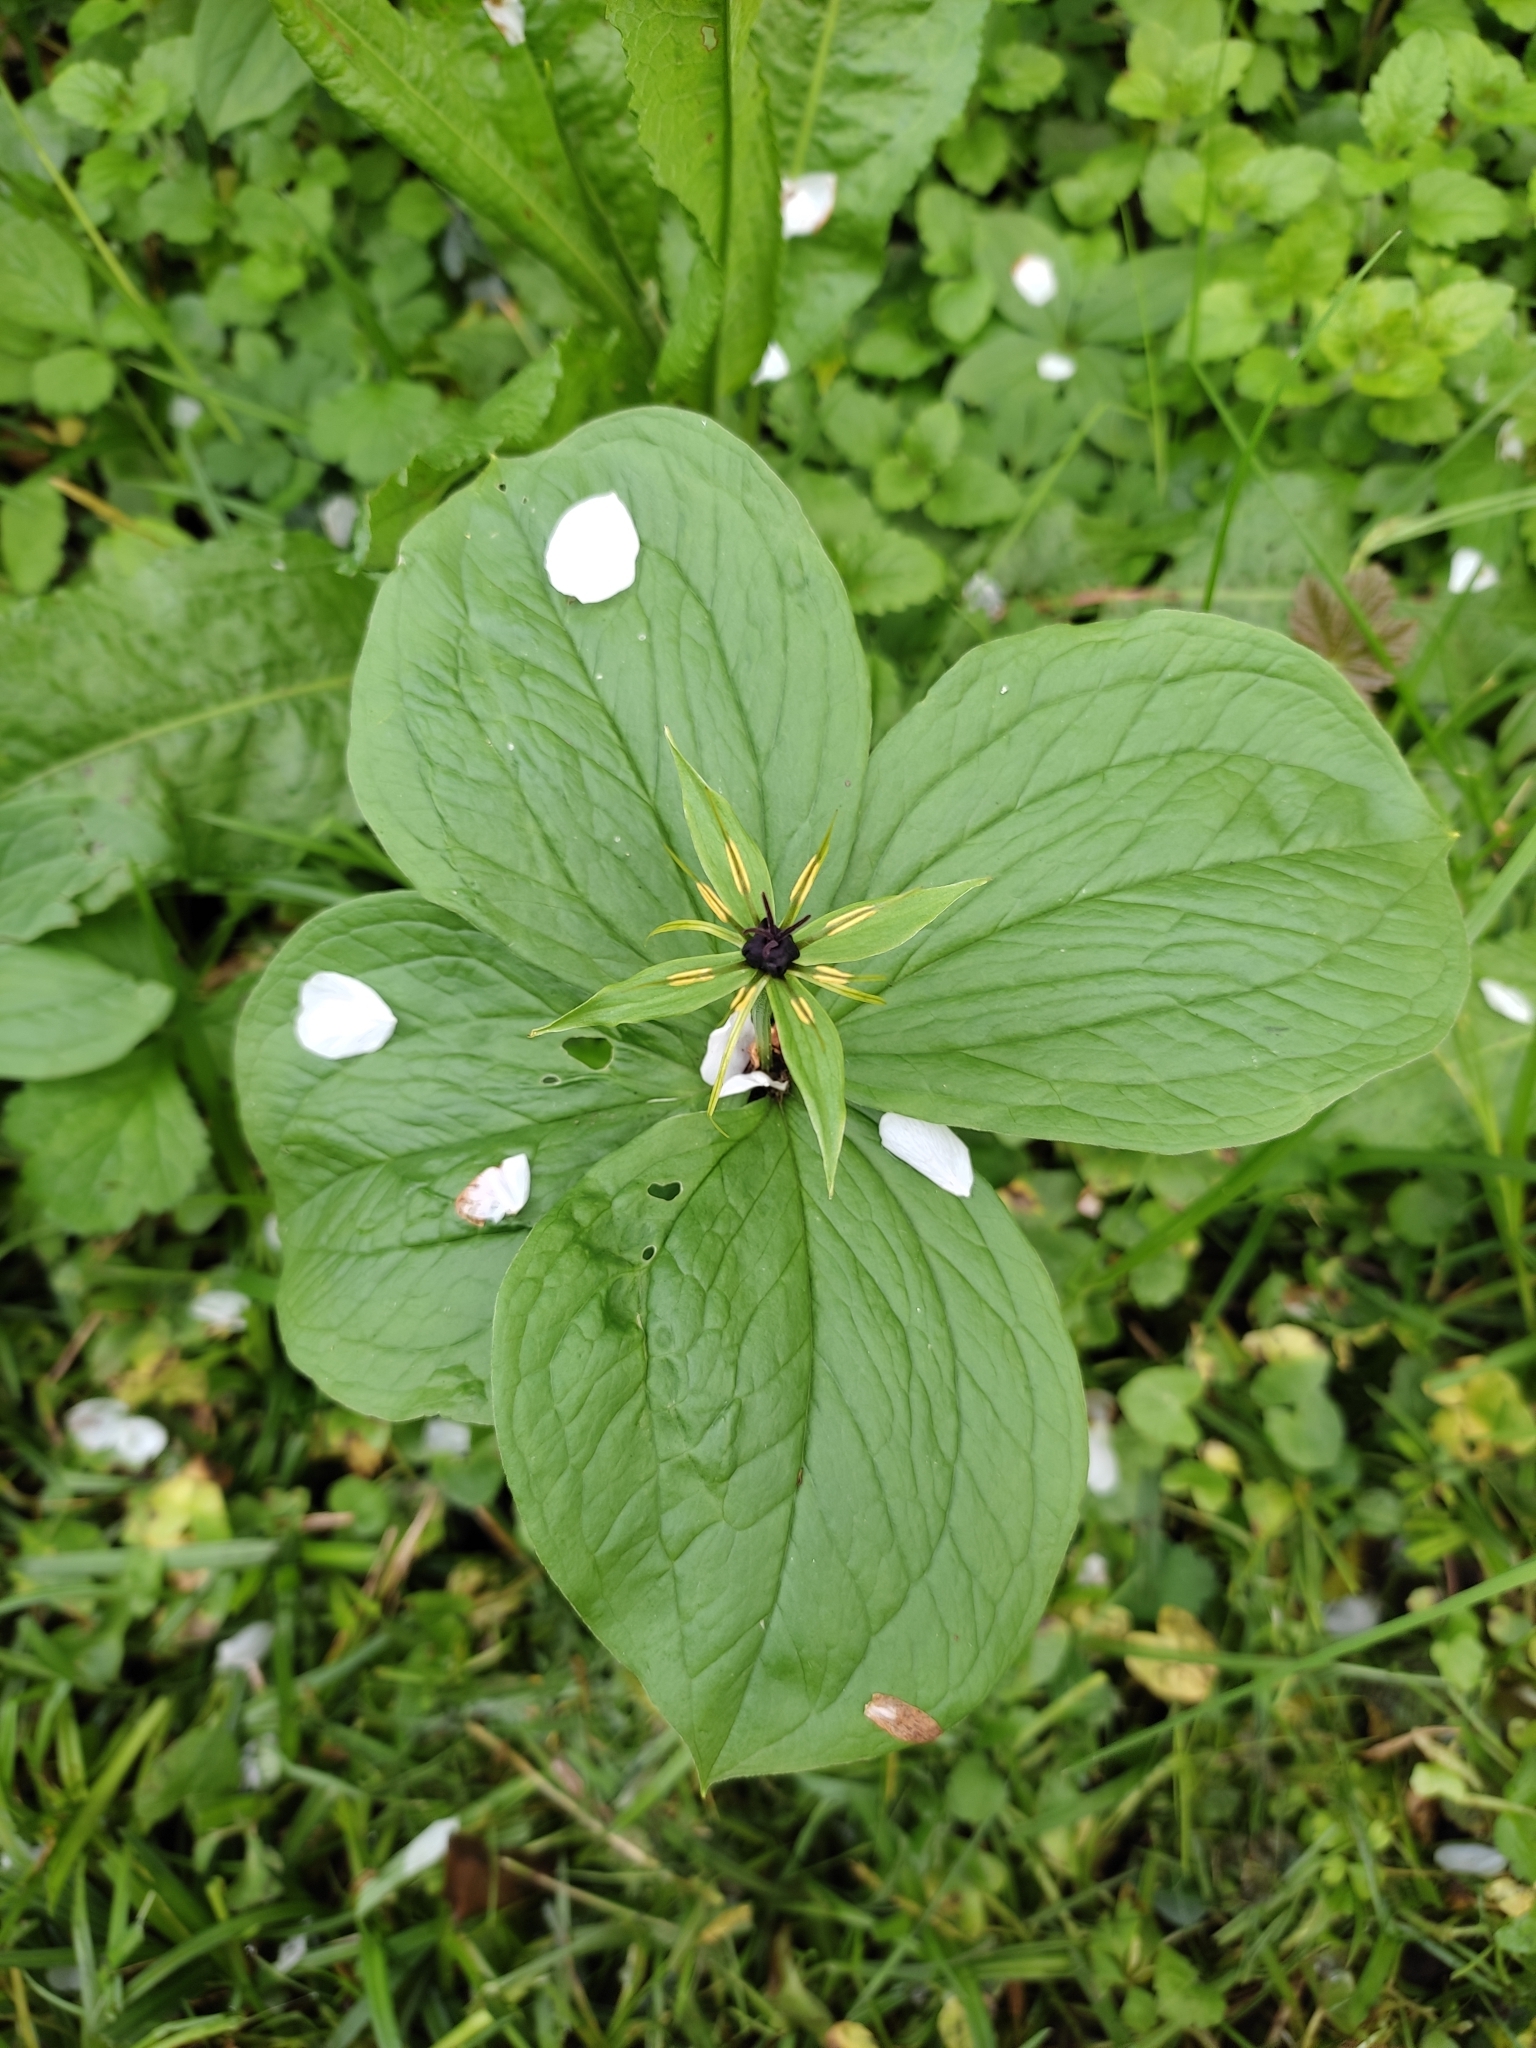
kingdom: Plantae
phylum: Tracheophyta
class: Liliopsida
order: Liliales
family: Melanthiaceae
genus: Paris
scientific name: Paris quadrifolia
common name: Herb-paris
